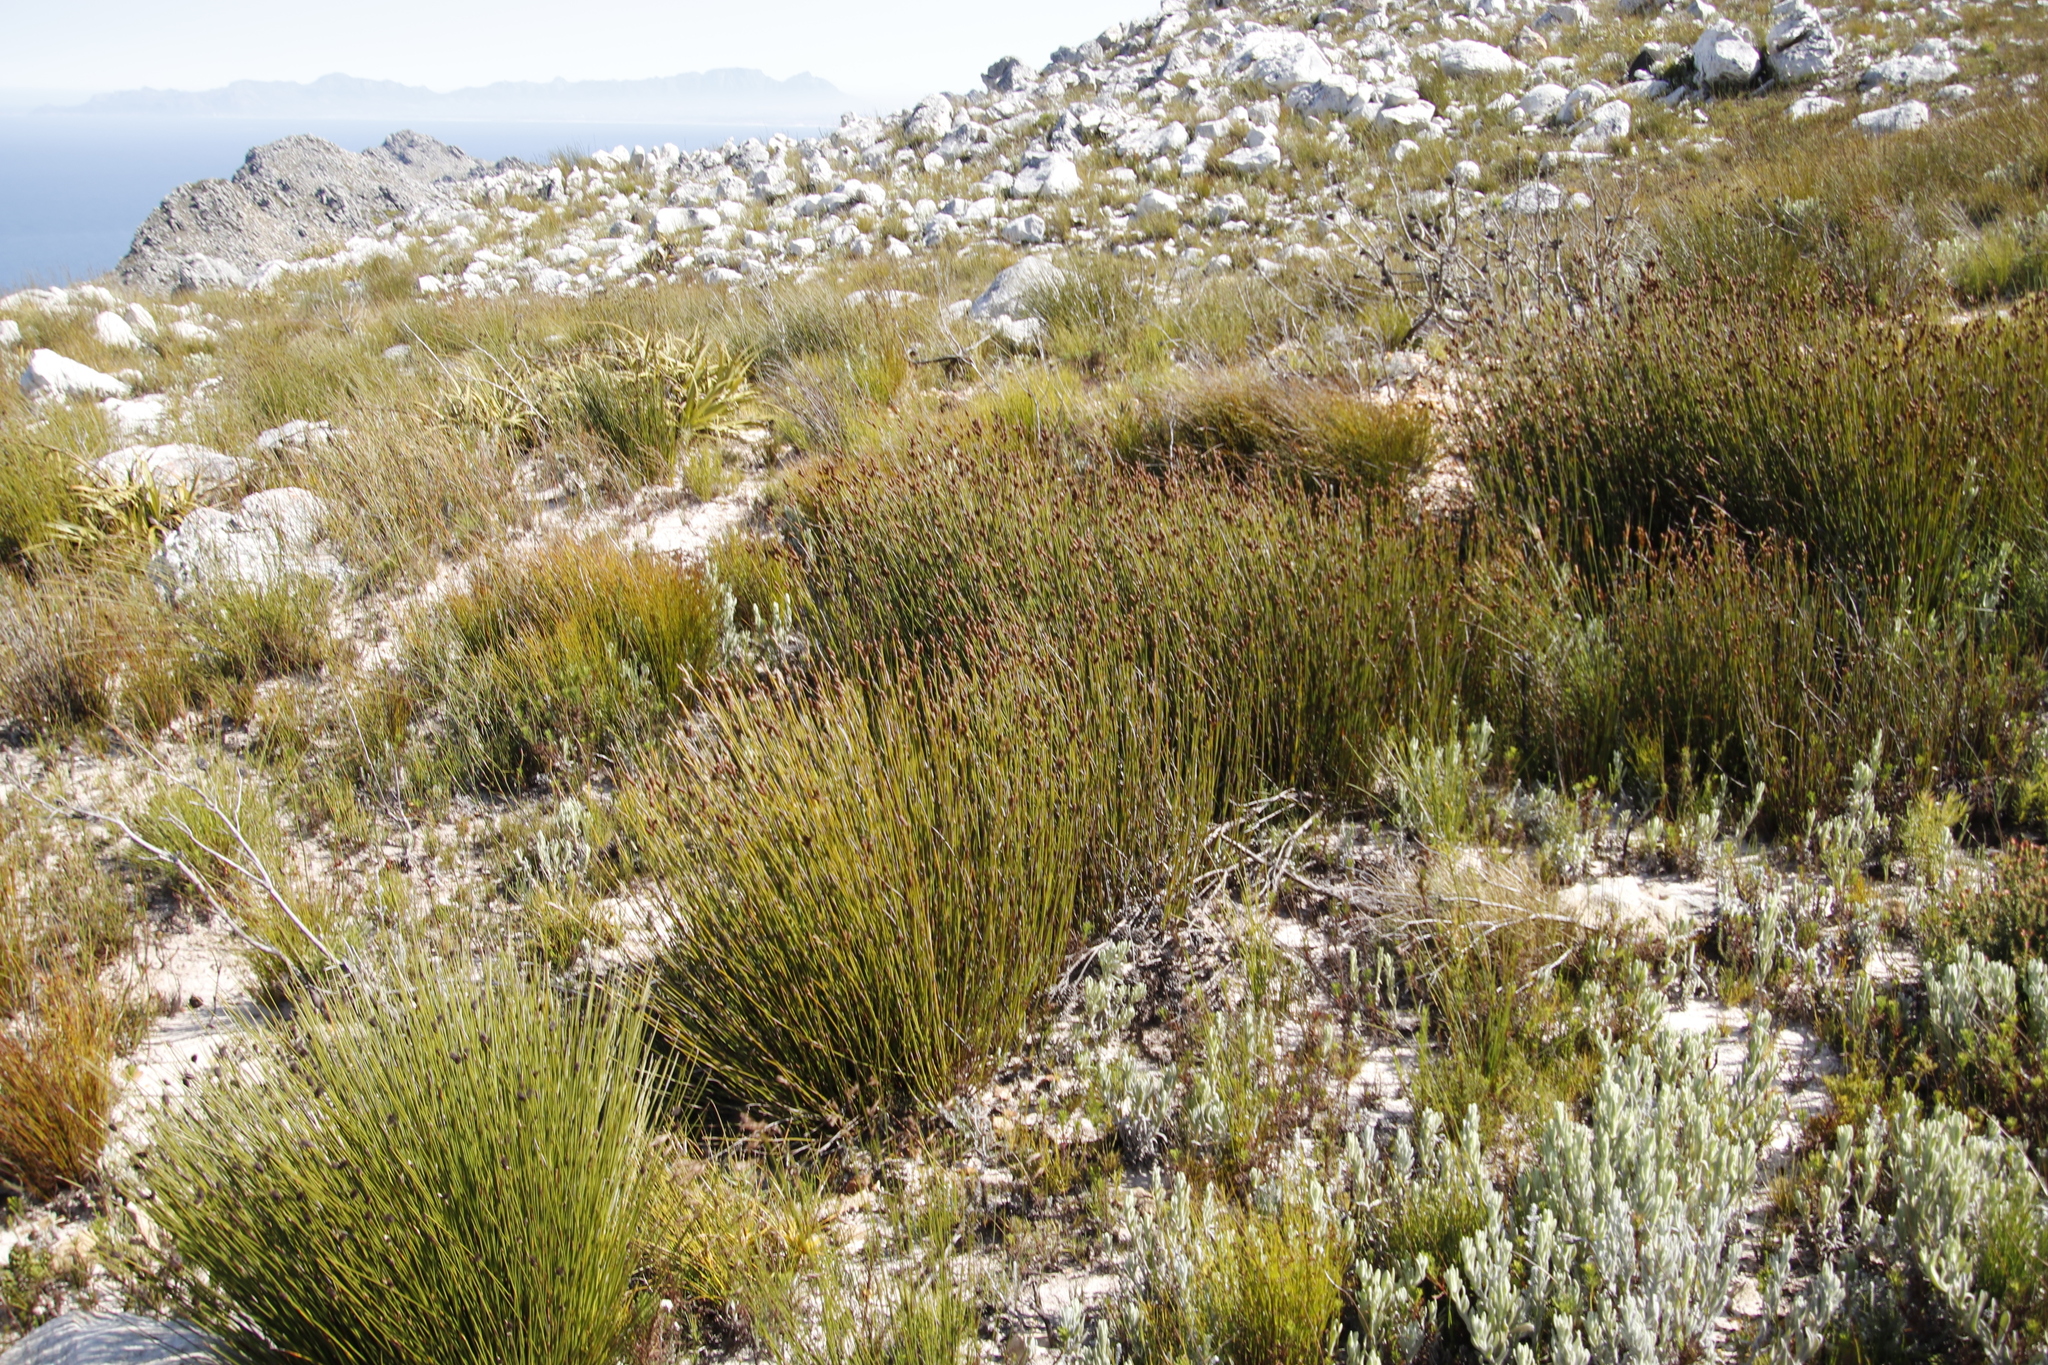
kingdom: Plantae
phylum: Tracheophyta
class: Liliopsida
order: Poales
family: Restionaceae
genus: Nevillea
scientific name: Nevillea obtusissimus
